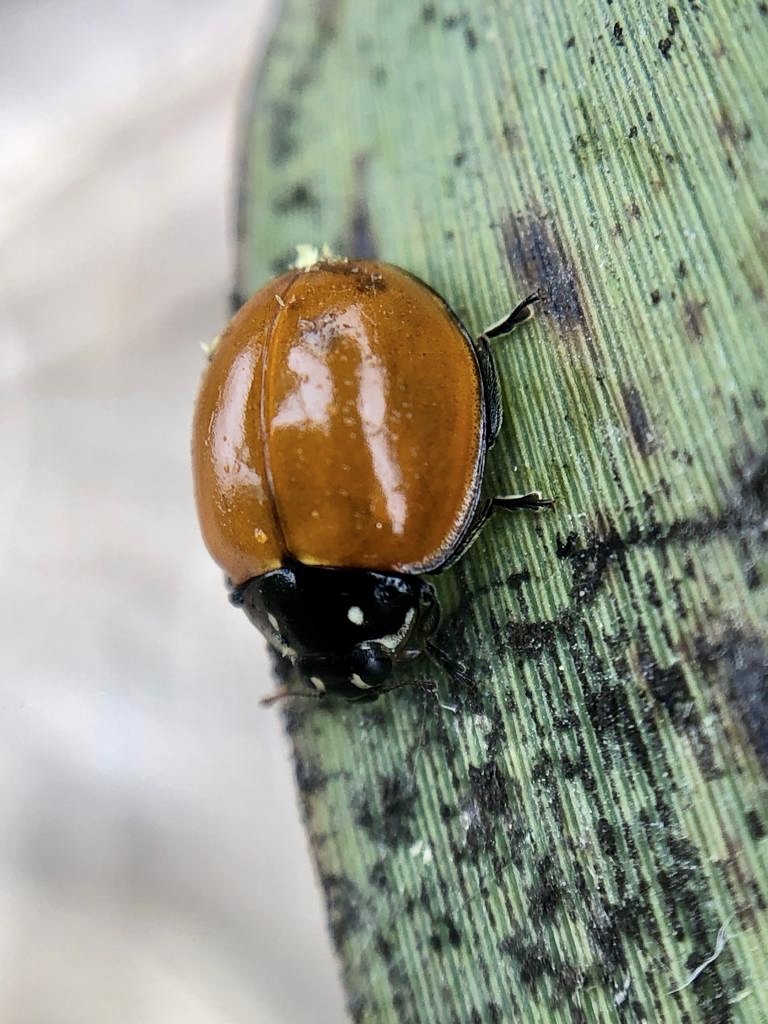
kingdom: Animalia
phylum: Arthropoda
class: Insecta
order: Coleoptera
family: Coccinellidae
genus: Cycloneda
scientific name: Cycloneda sanguinea
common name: Ladybird beetle
